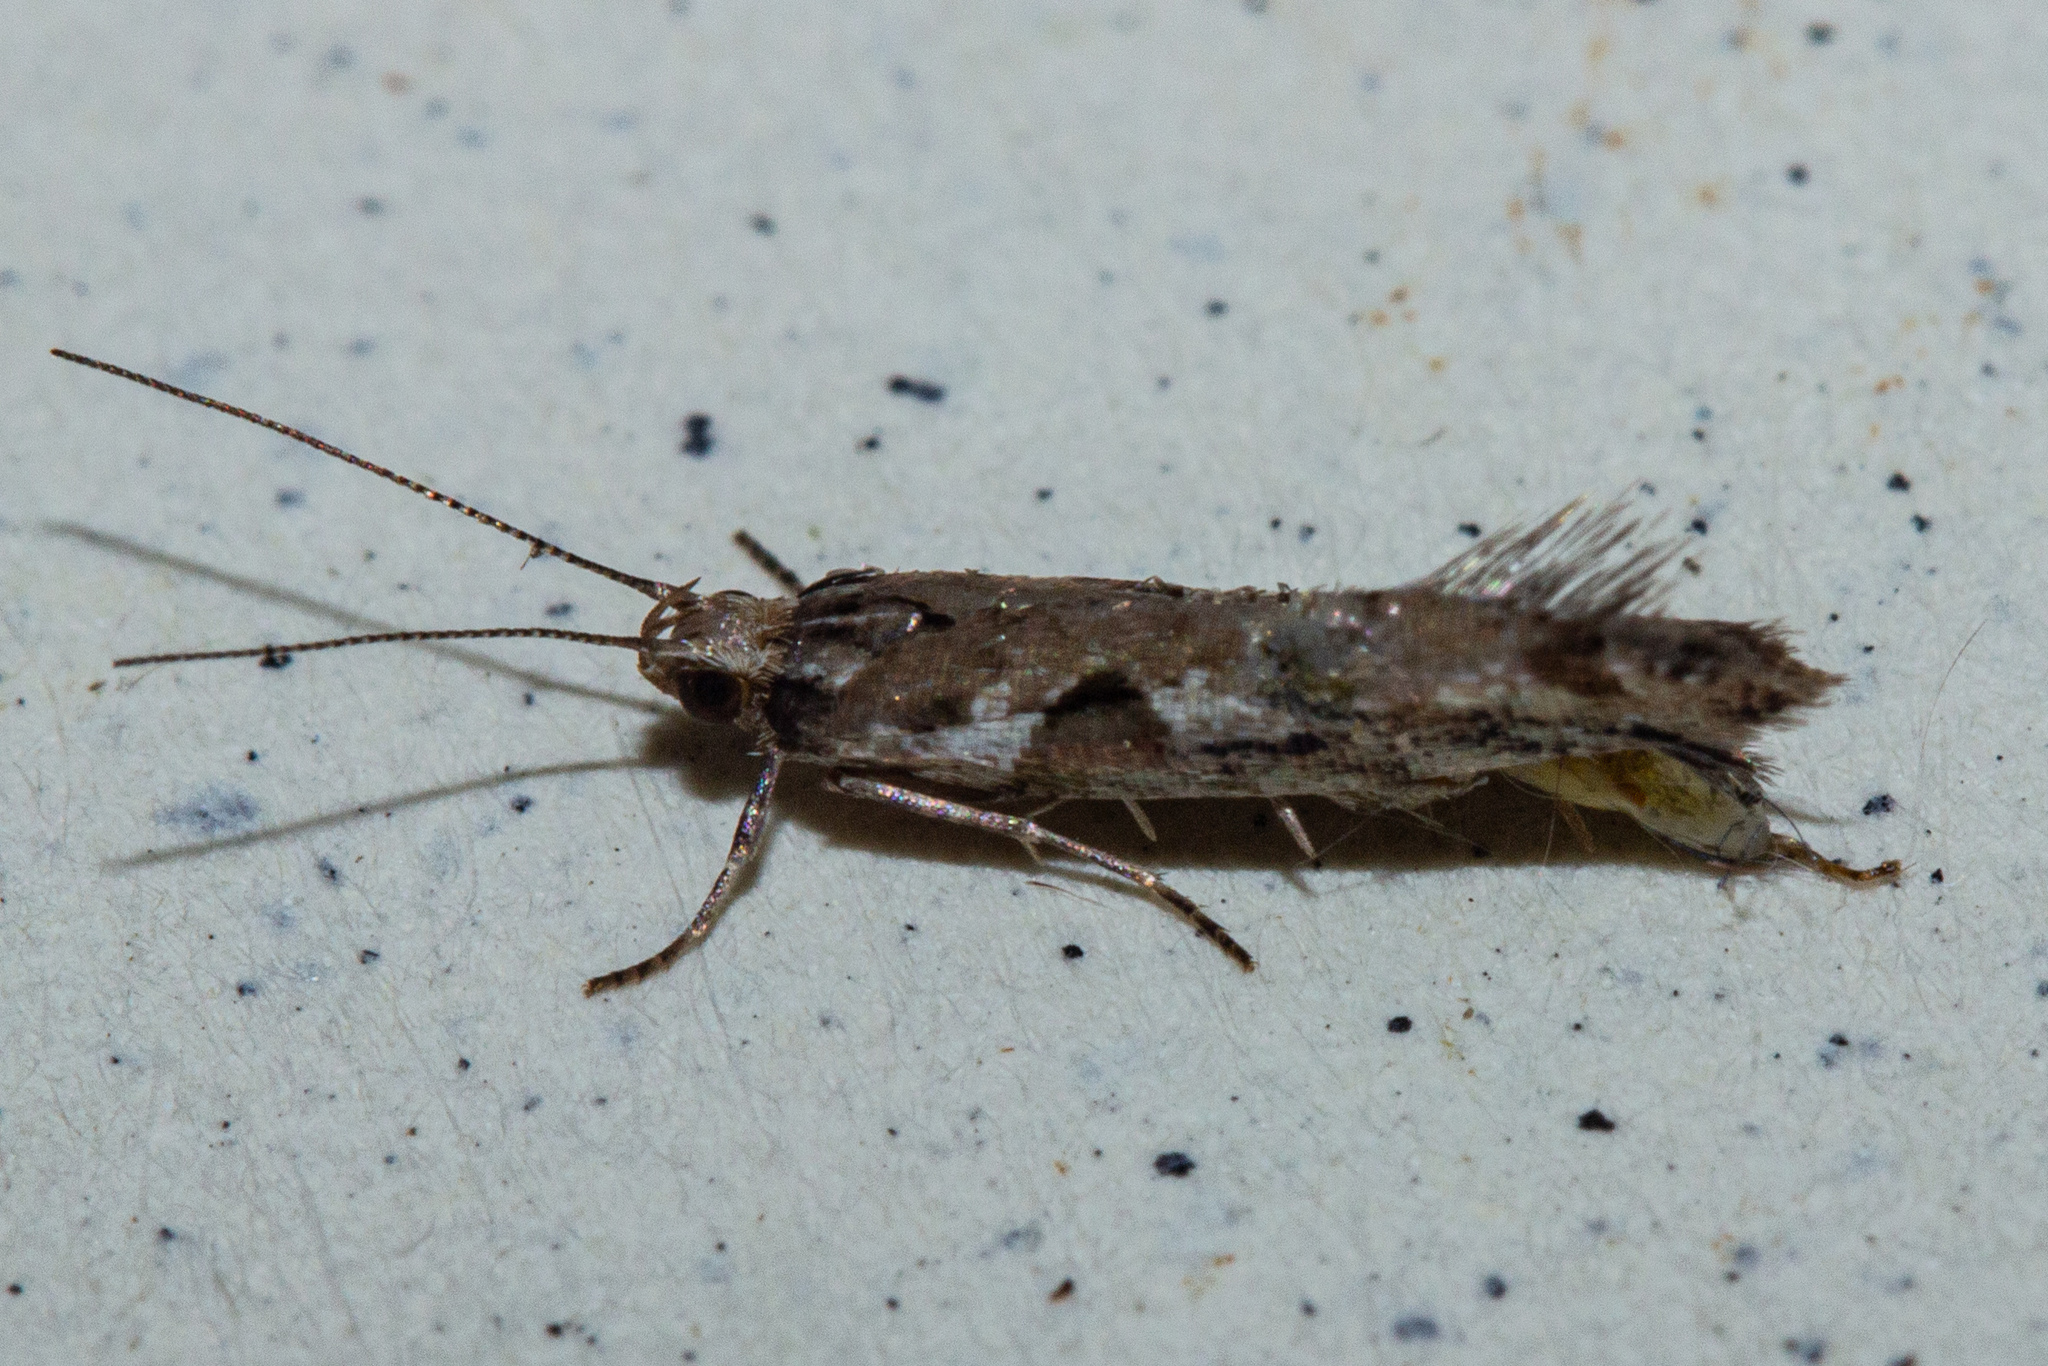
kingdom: Animalia
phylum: Arthropoda
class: Insecta
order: Lepidoptera
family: Glyphipterigidae
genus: Chrysorthenches
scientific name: Chrysorthenches porphyritis
